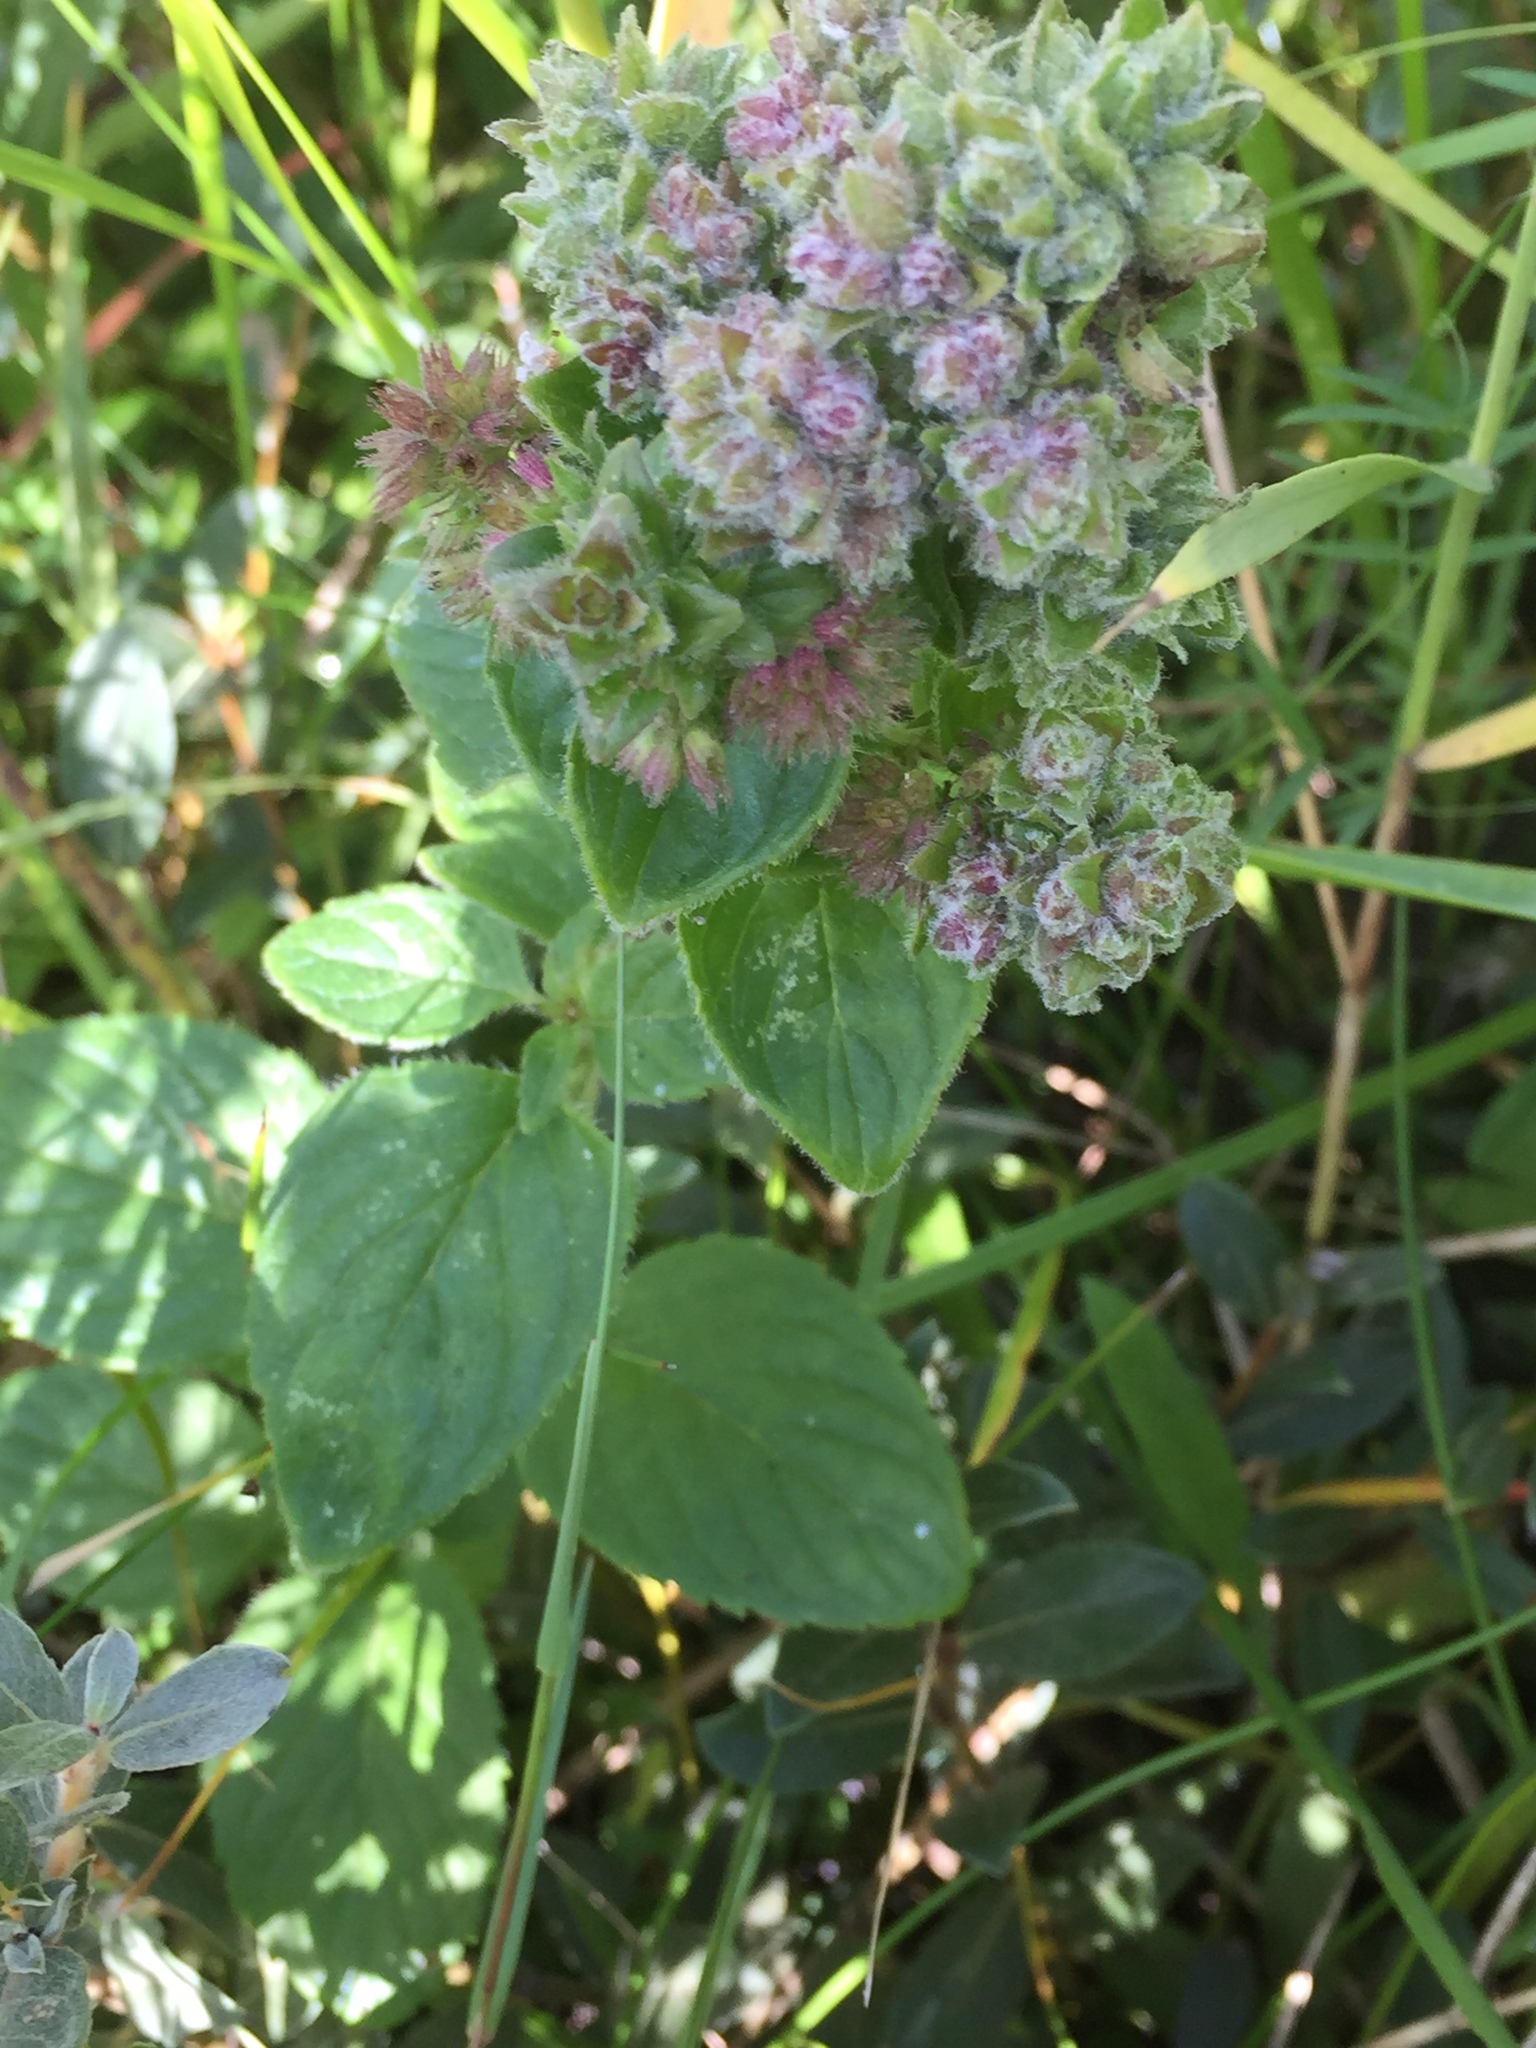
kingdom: Plantae
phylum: Tracheophyta
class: Magnoliopsida
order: Lamiales
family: Lamiaceae
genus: Mentha
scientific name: Mentha aquatica
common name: Water mint
